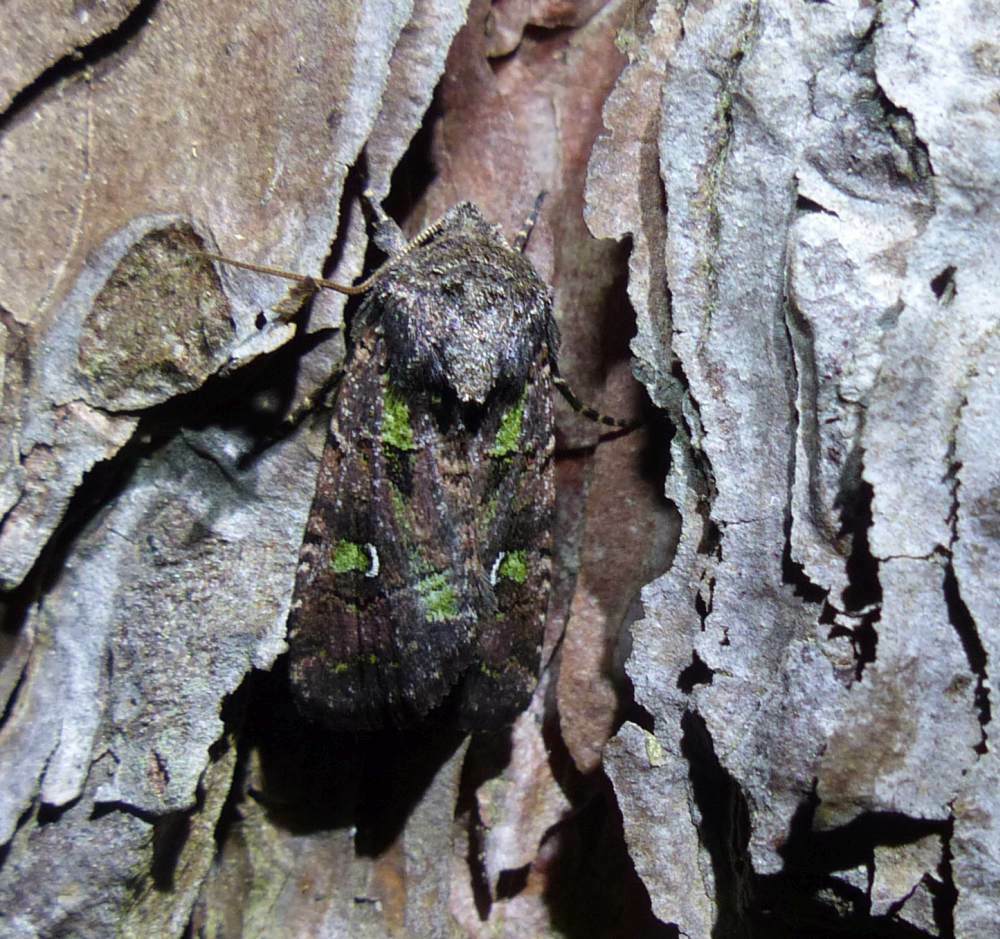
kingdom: Animalia
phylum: Arthropoda
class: Insecta
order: Lepidoptera
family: Noctuidae
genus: Lacinipolia
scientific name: Lacinipolia renigera
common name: Kidney-spotted minor
